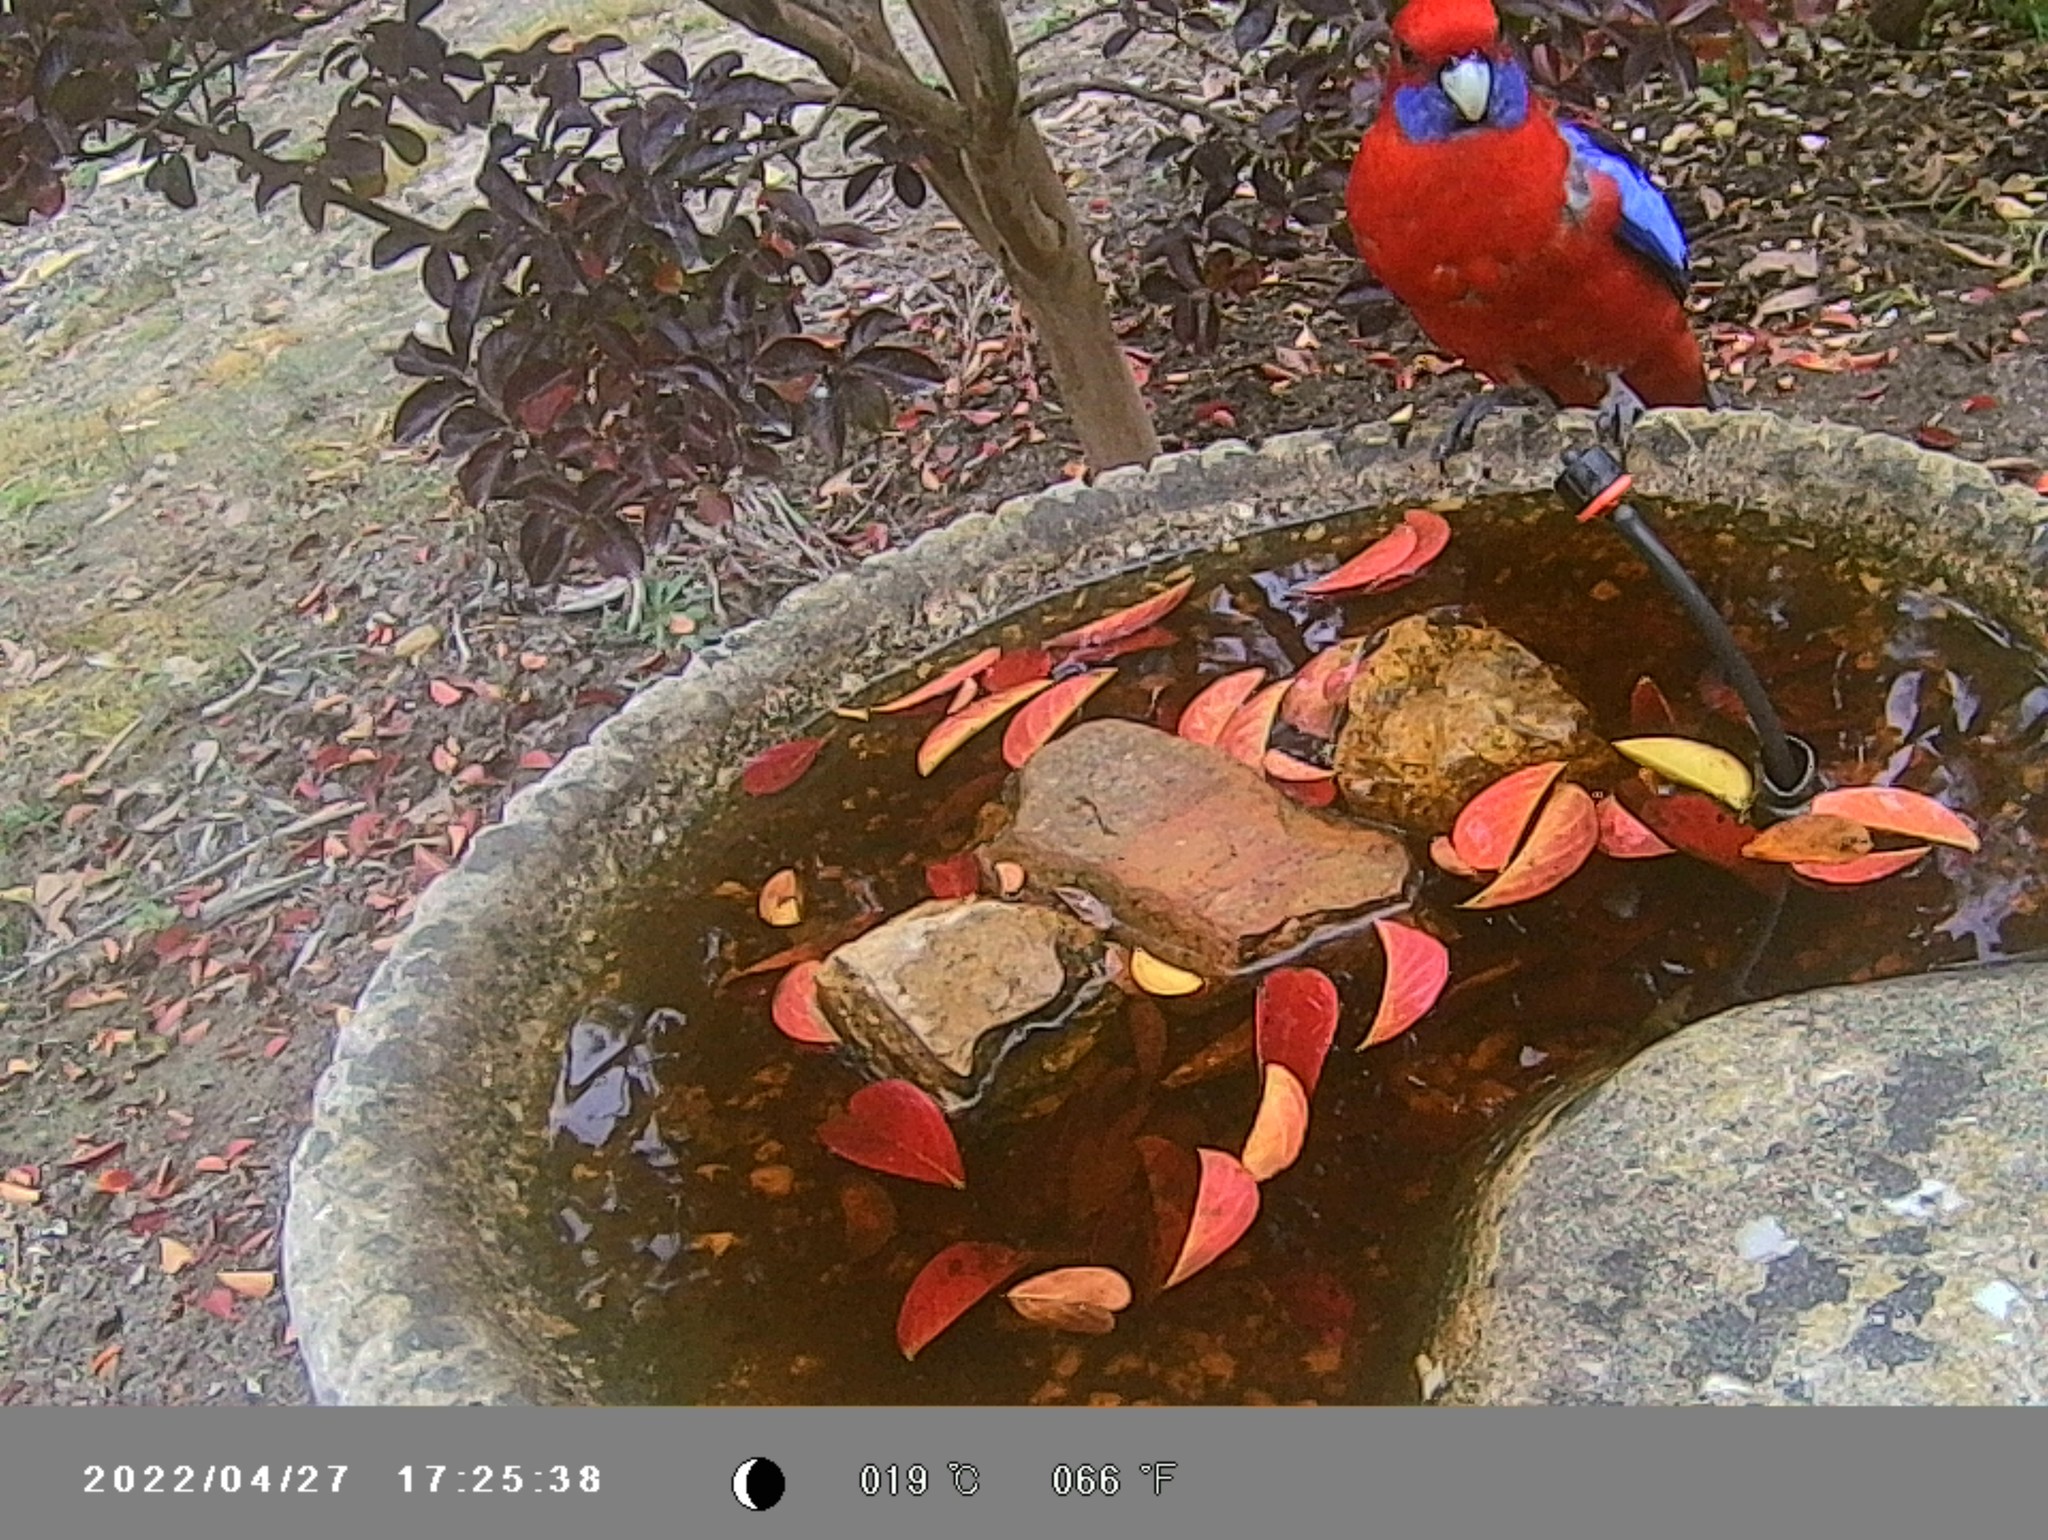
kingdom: Animalia
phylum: Chordata
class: Aves
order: Psittaciformes
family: Psittacidae
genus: Platycercus
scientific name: Platycercus elegans
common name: Crimson rosella
